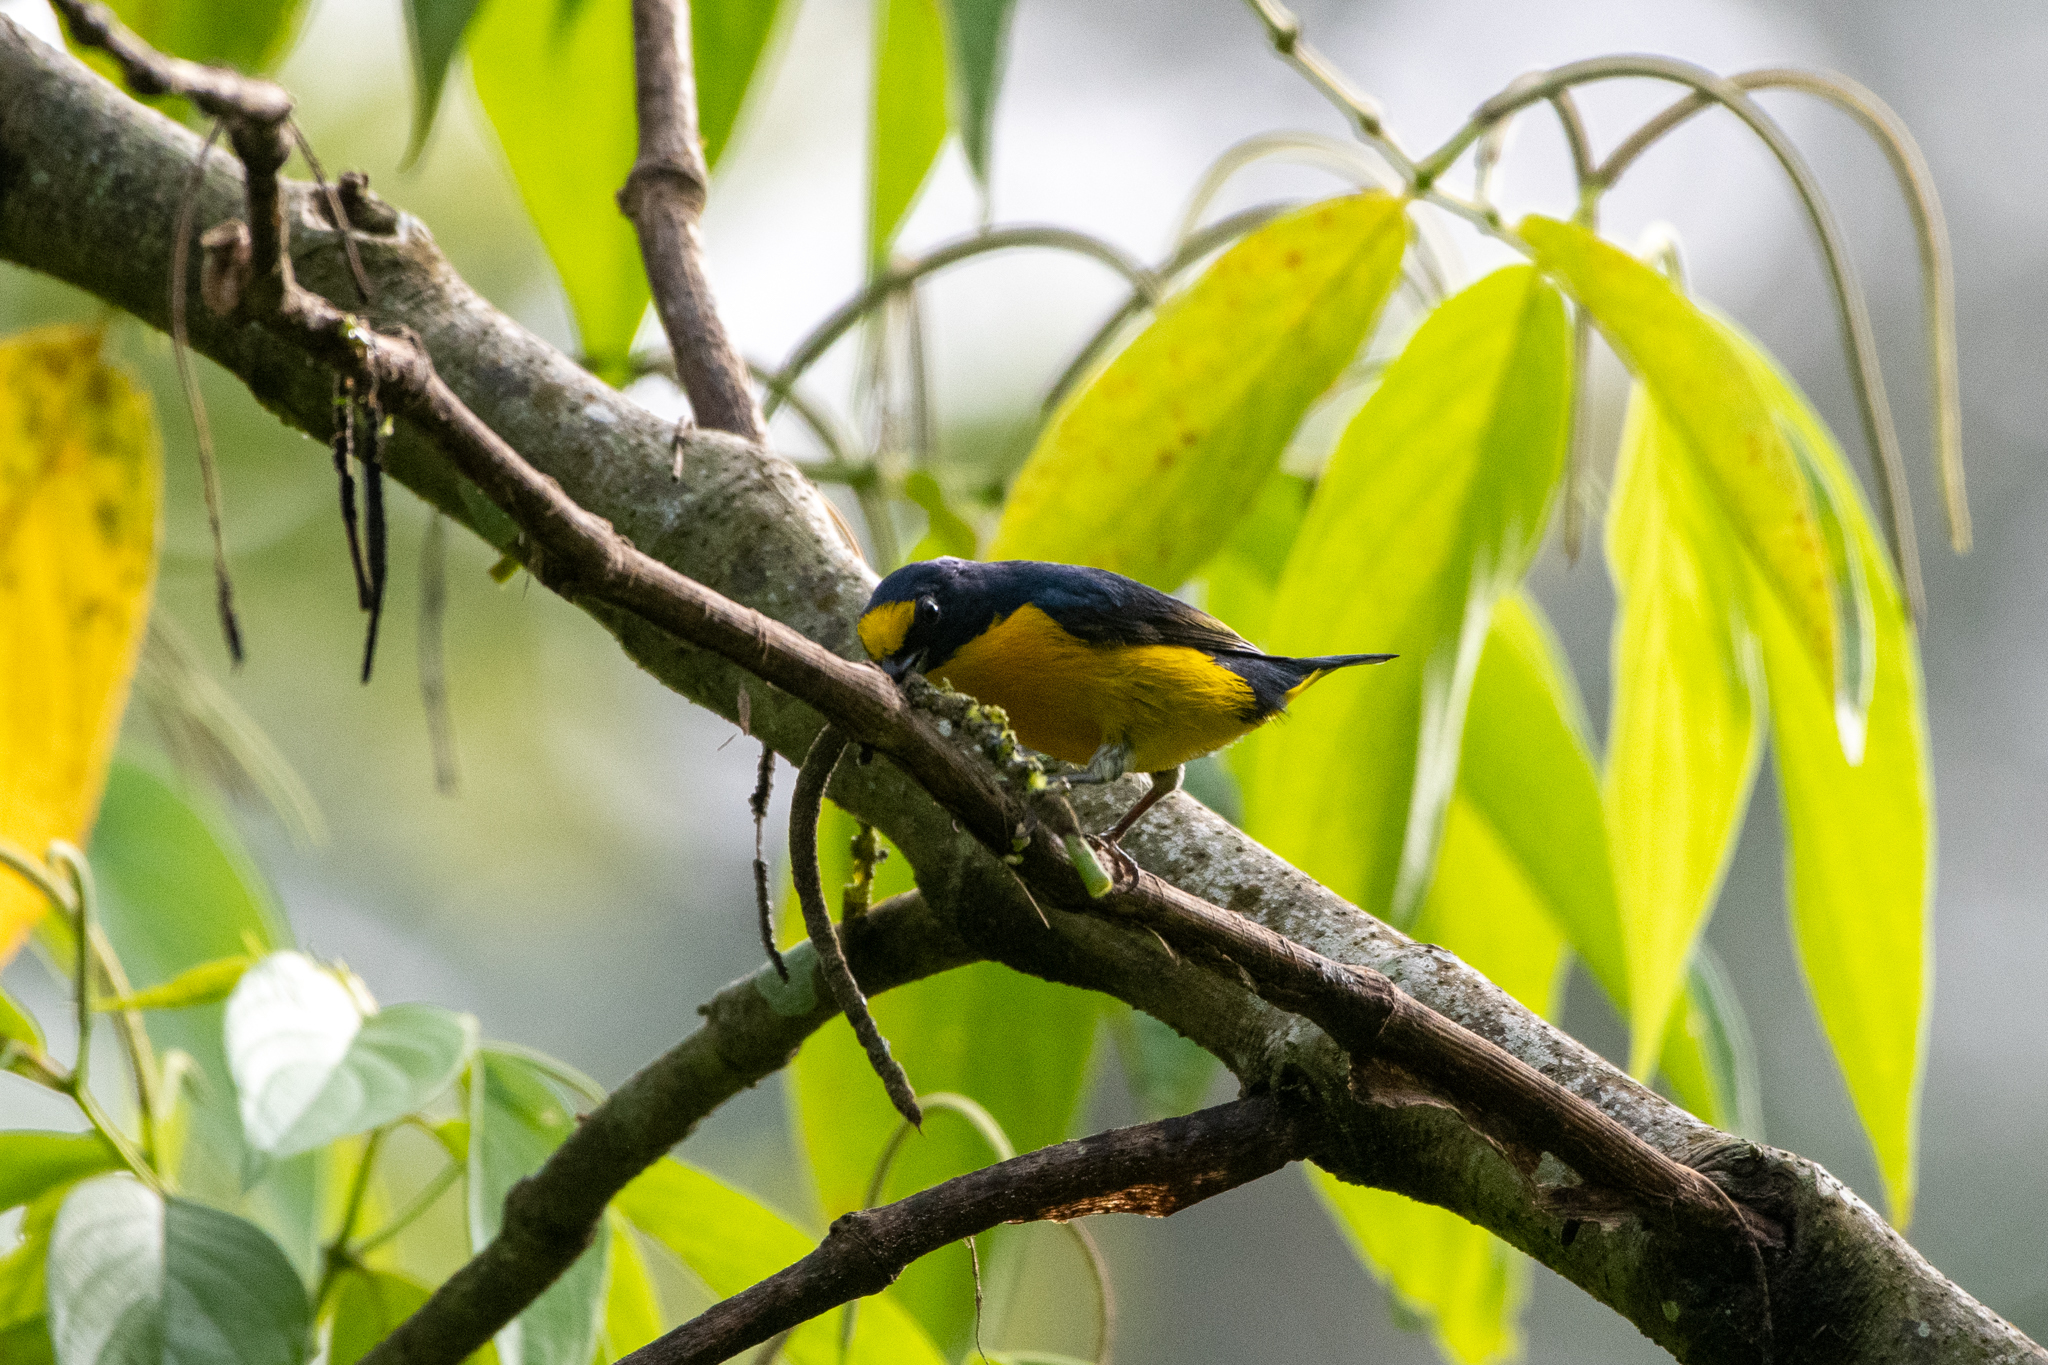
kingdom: Animalia
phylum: Chordata
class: Aves
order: Passeriformes
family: Fringillidae
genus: Euphonia
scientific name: Euphonia hirundinacea
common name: Yellow-throated euphonia
